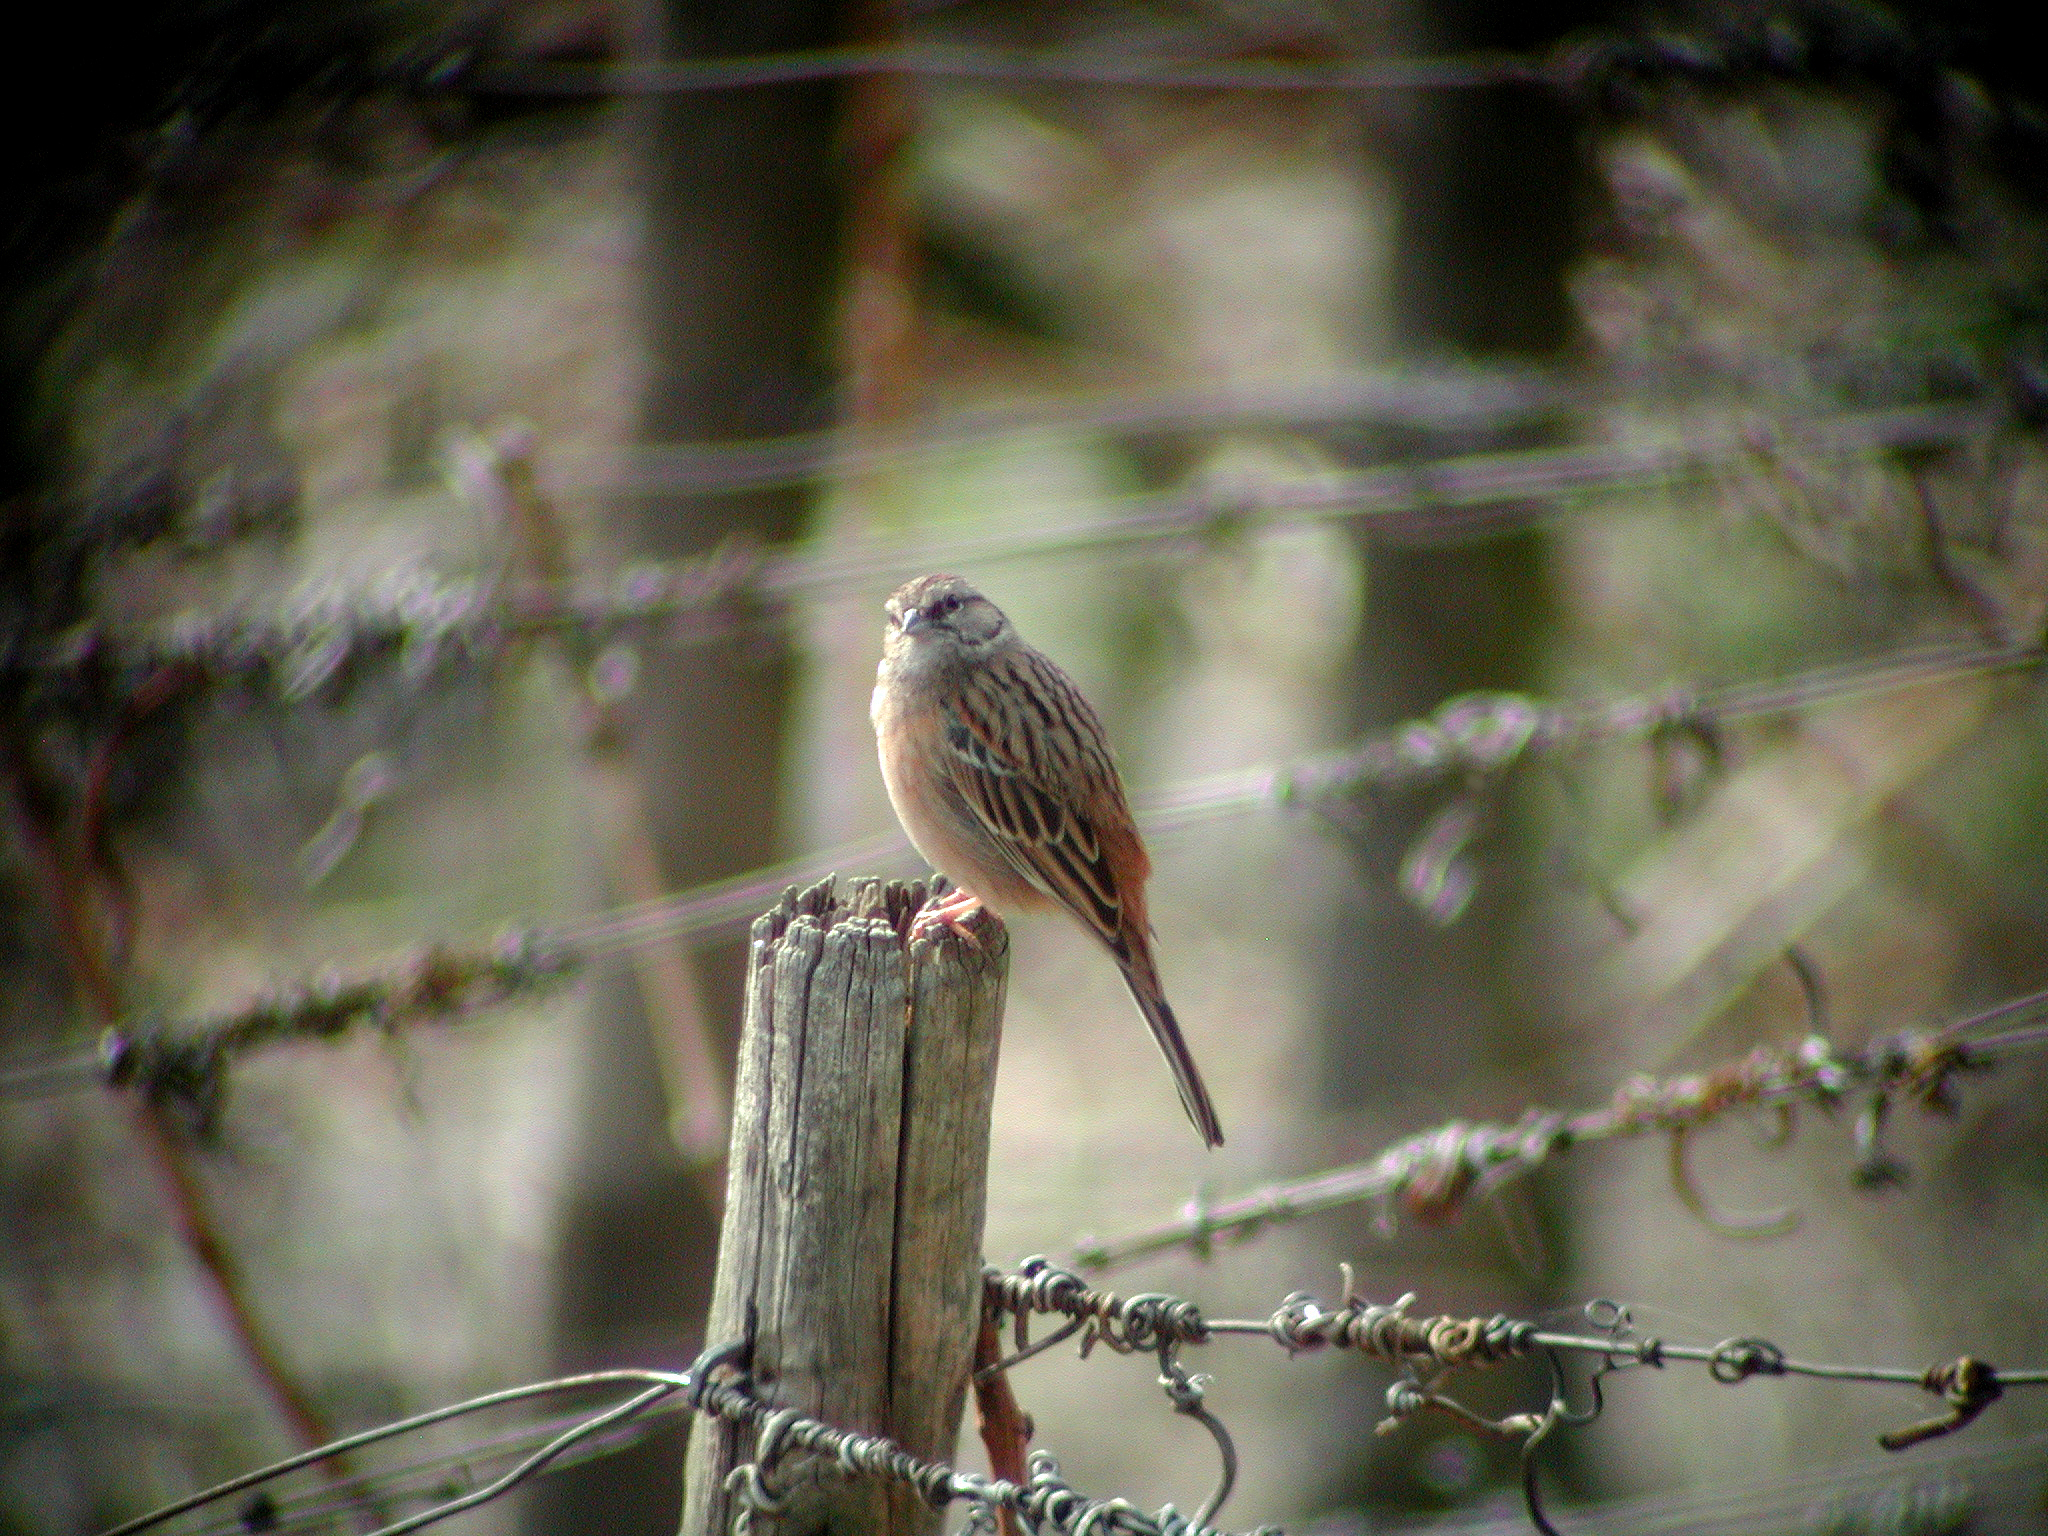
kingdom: Animalia
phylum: Chordata
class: Aves
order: Passeriformes
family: Emberizidae
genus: Emberiza
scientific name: Emberiza cia
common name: Rock bunting
